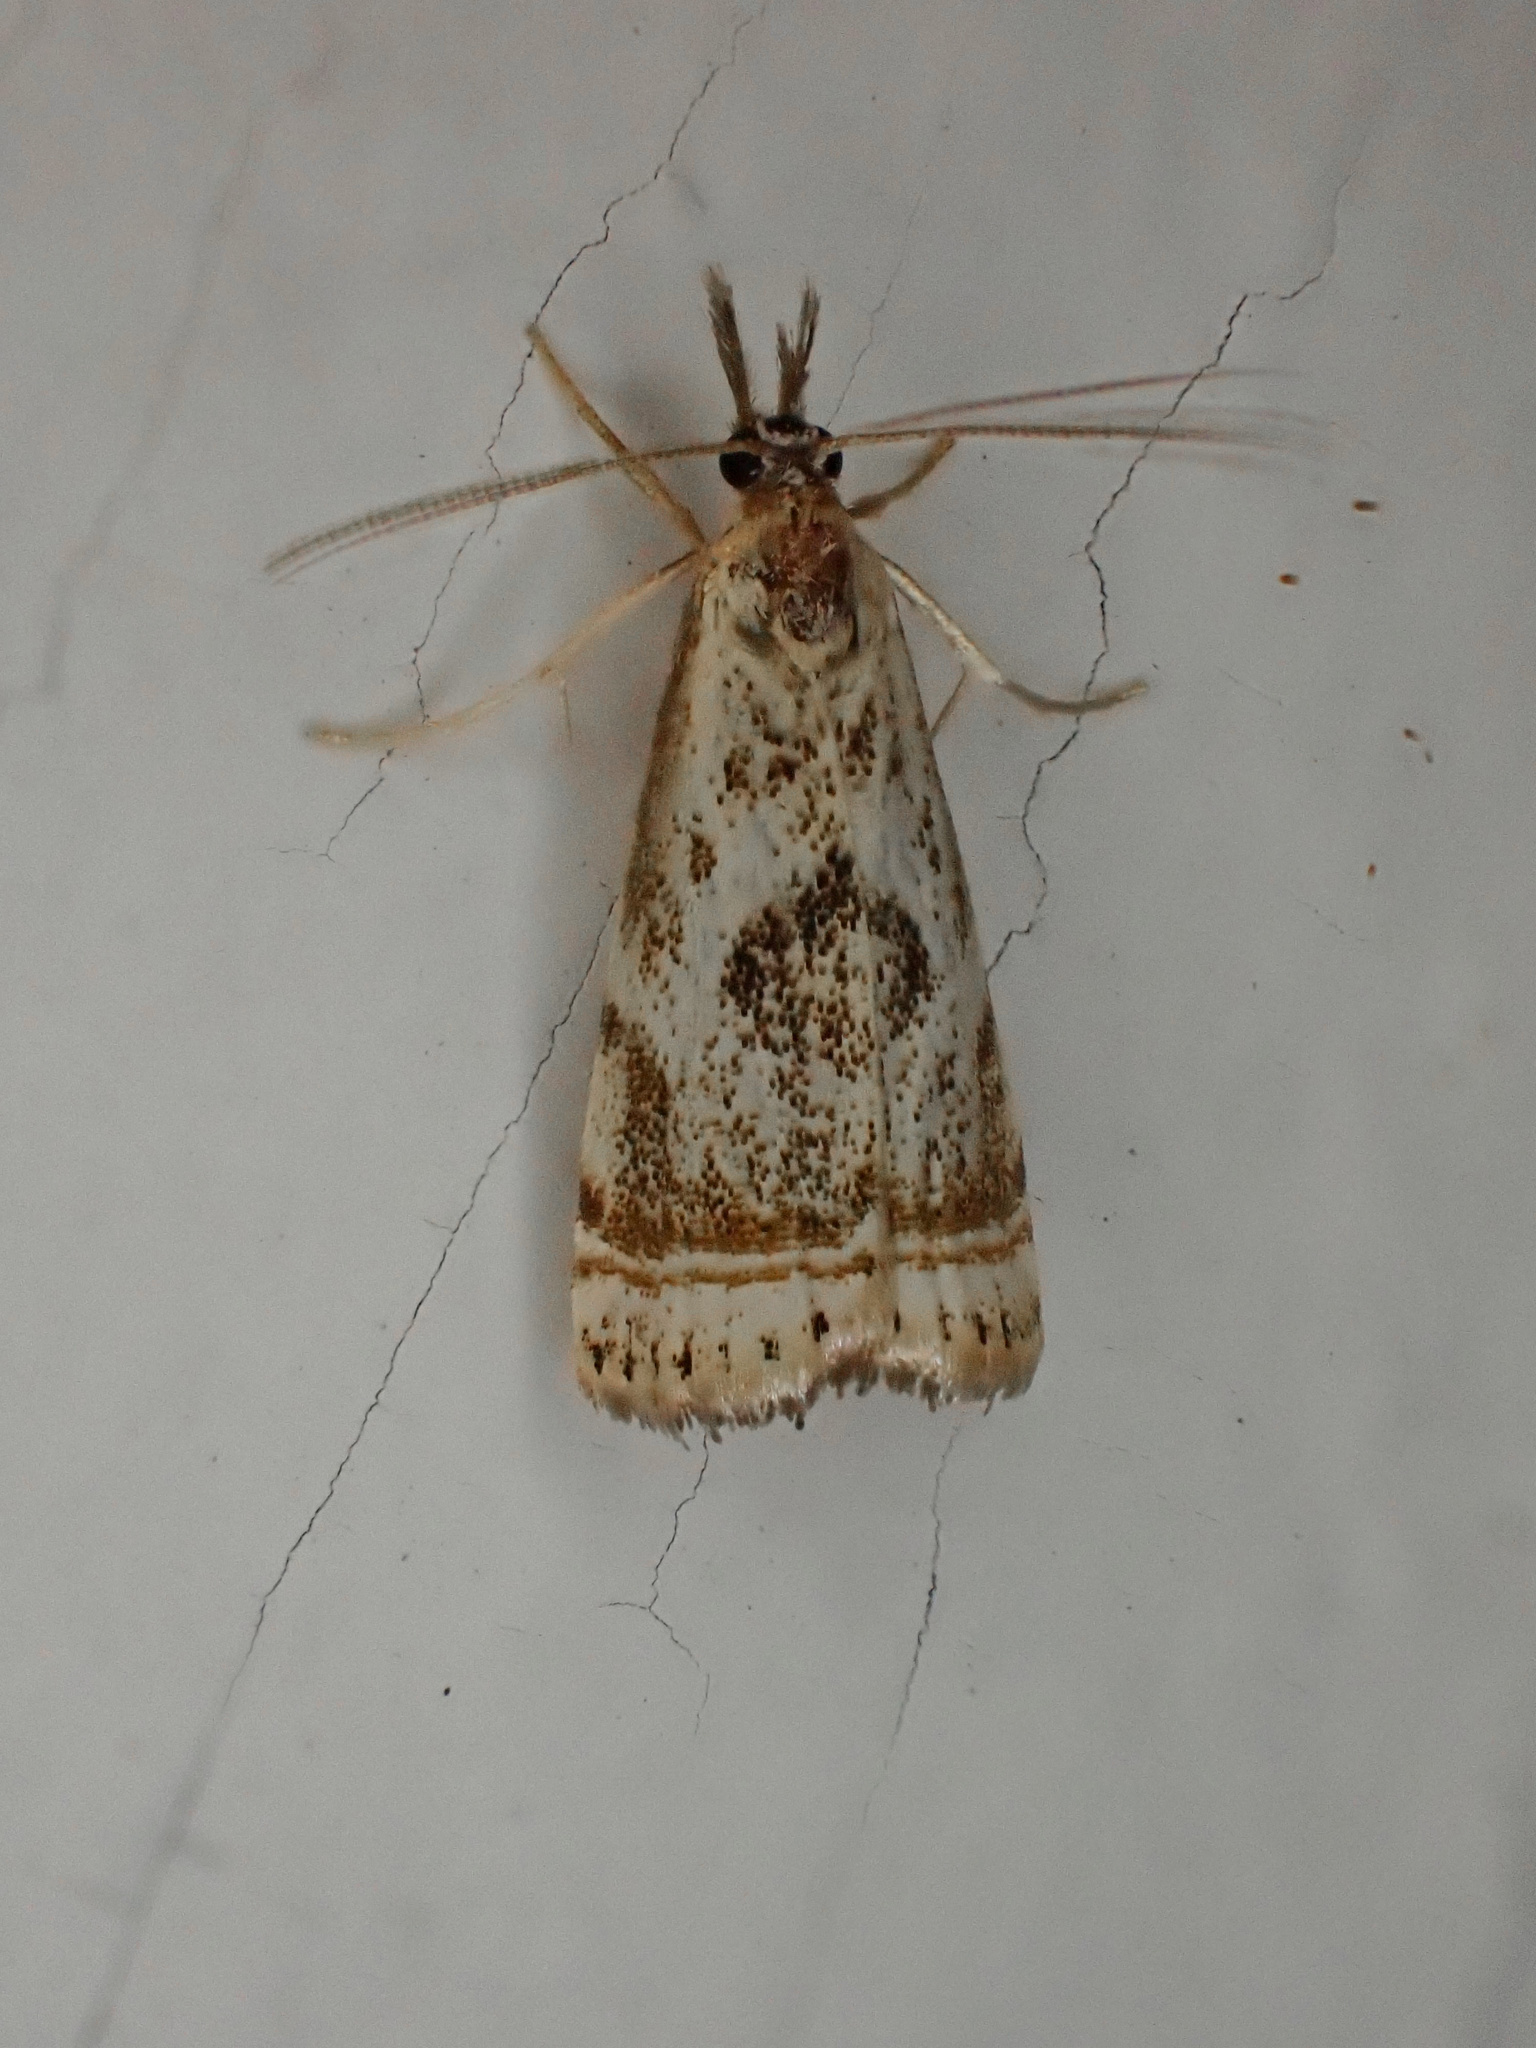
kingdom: Animalia
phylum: Arthropoda
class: Insecta
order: Lepidoptera
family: Crambidae
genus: Microcrambus
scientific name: Microcrambus elegans
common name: Elegant grass-veneer
